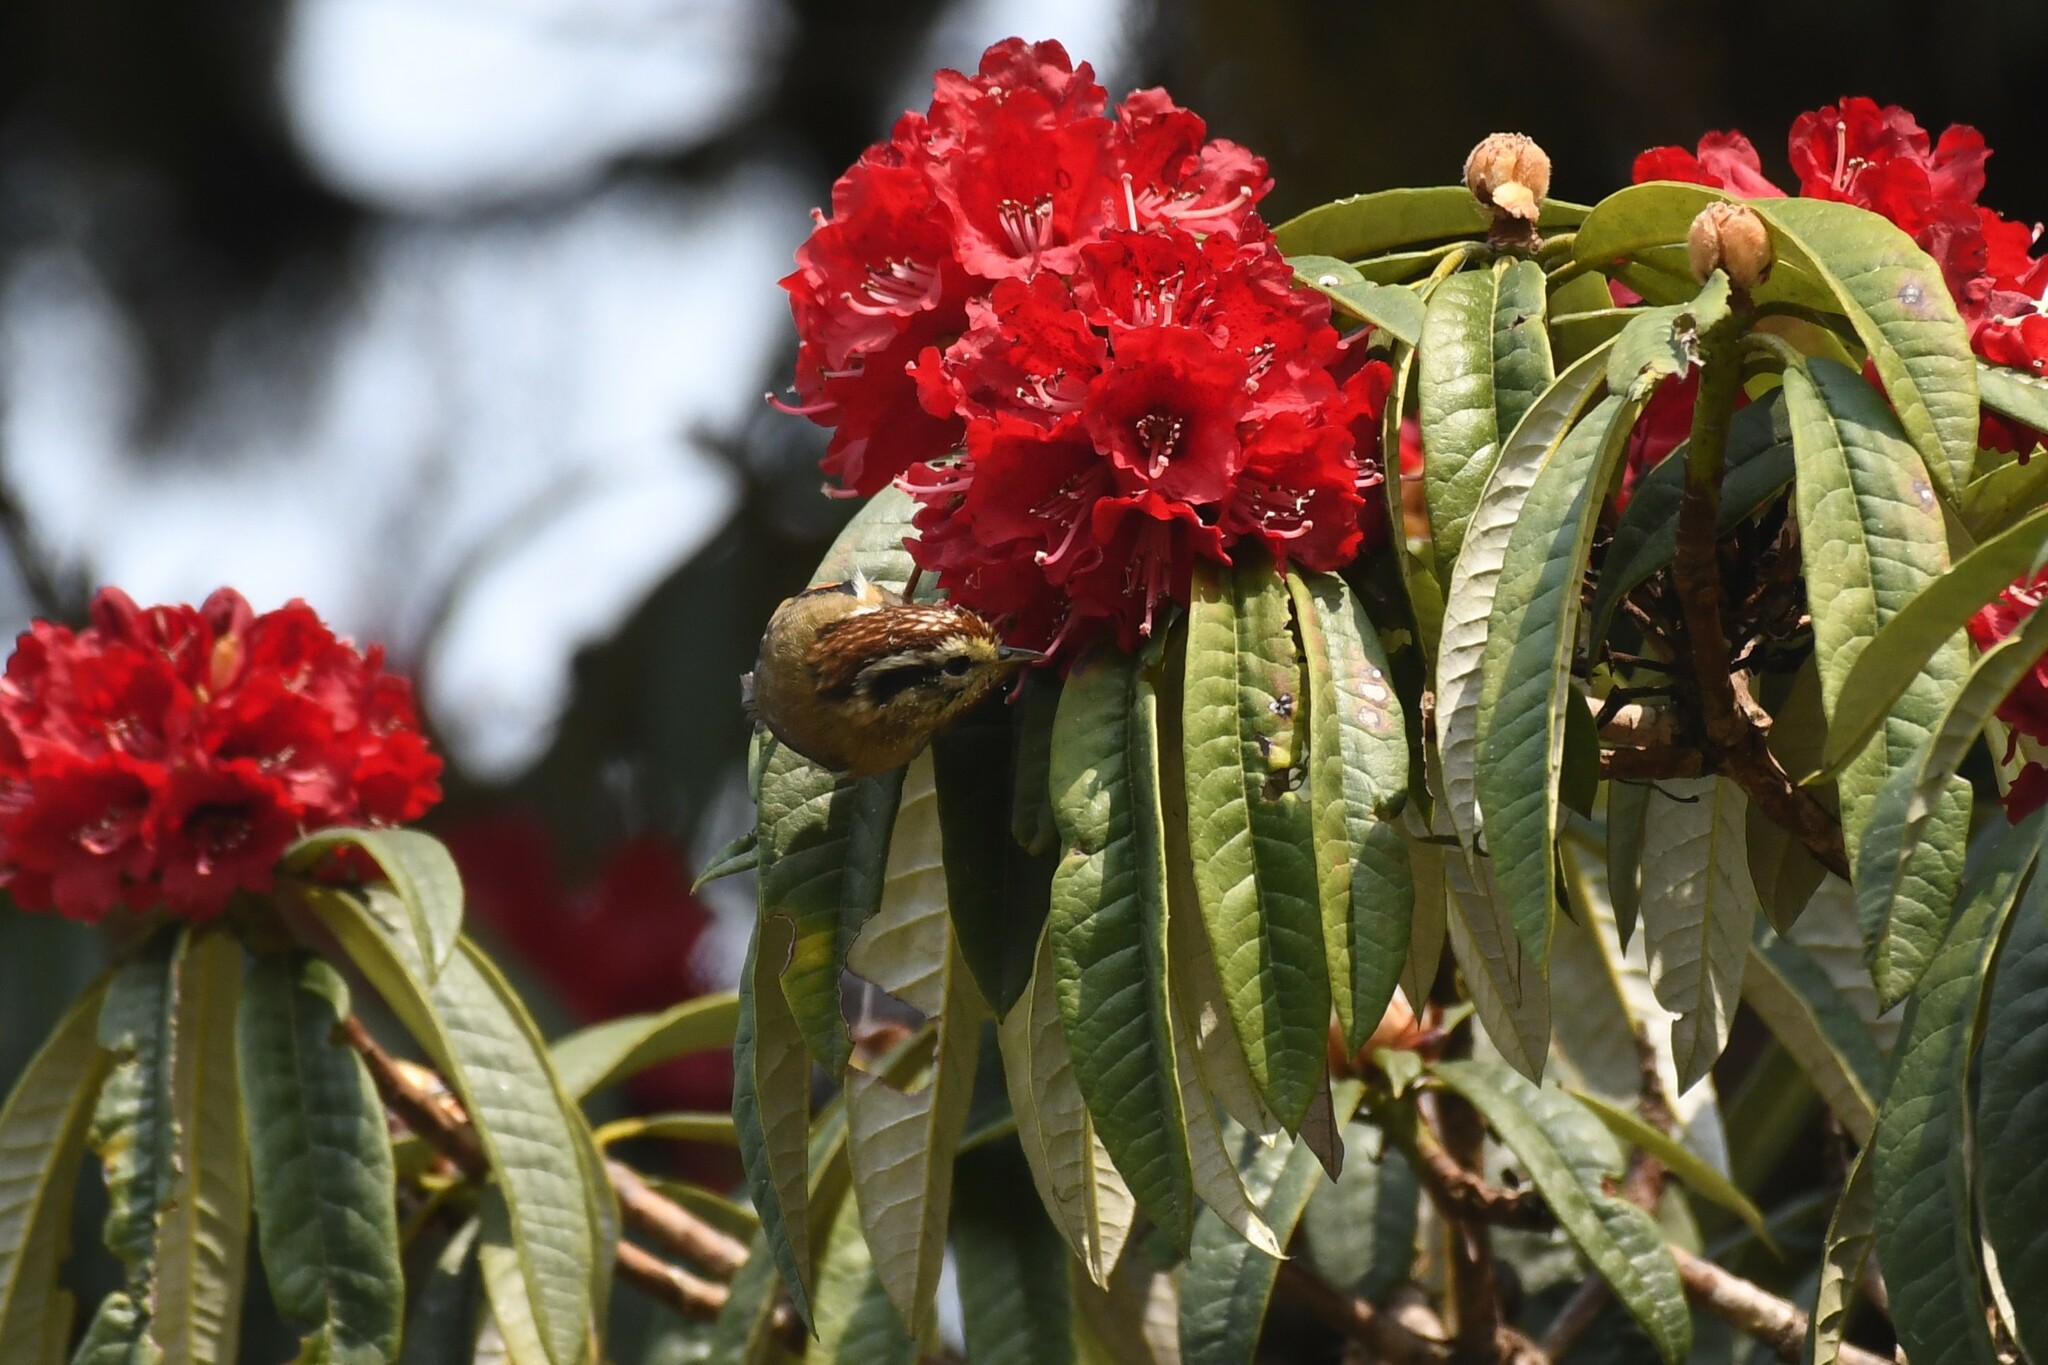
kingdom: Animalia
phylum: Chordata
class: Aves
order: Passeriformes
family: Pellorneidae
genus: Alcippe
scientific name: Alcippe castaneceps
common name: Rufous-winged fulvetta
